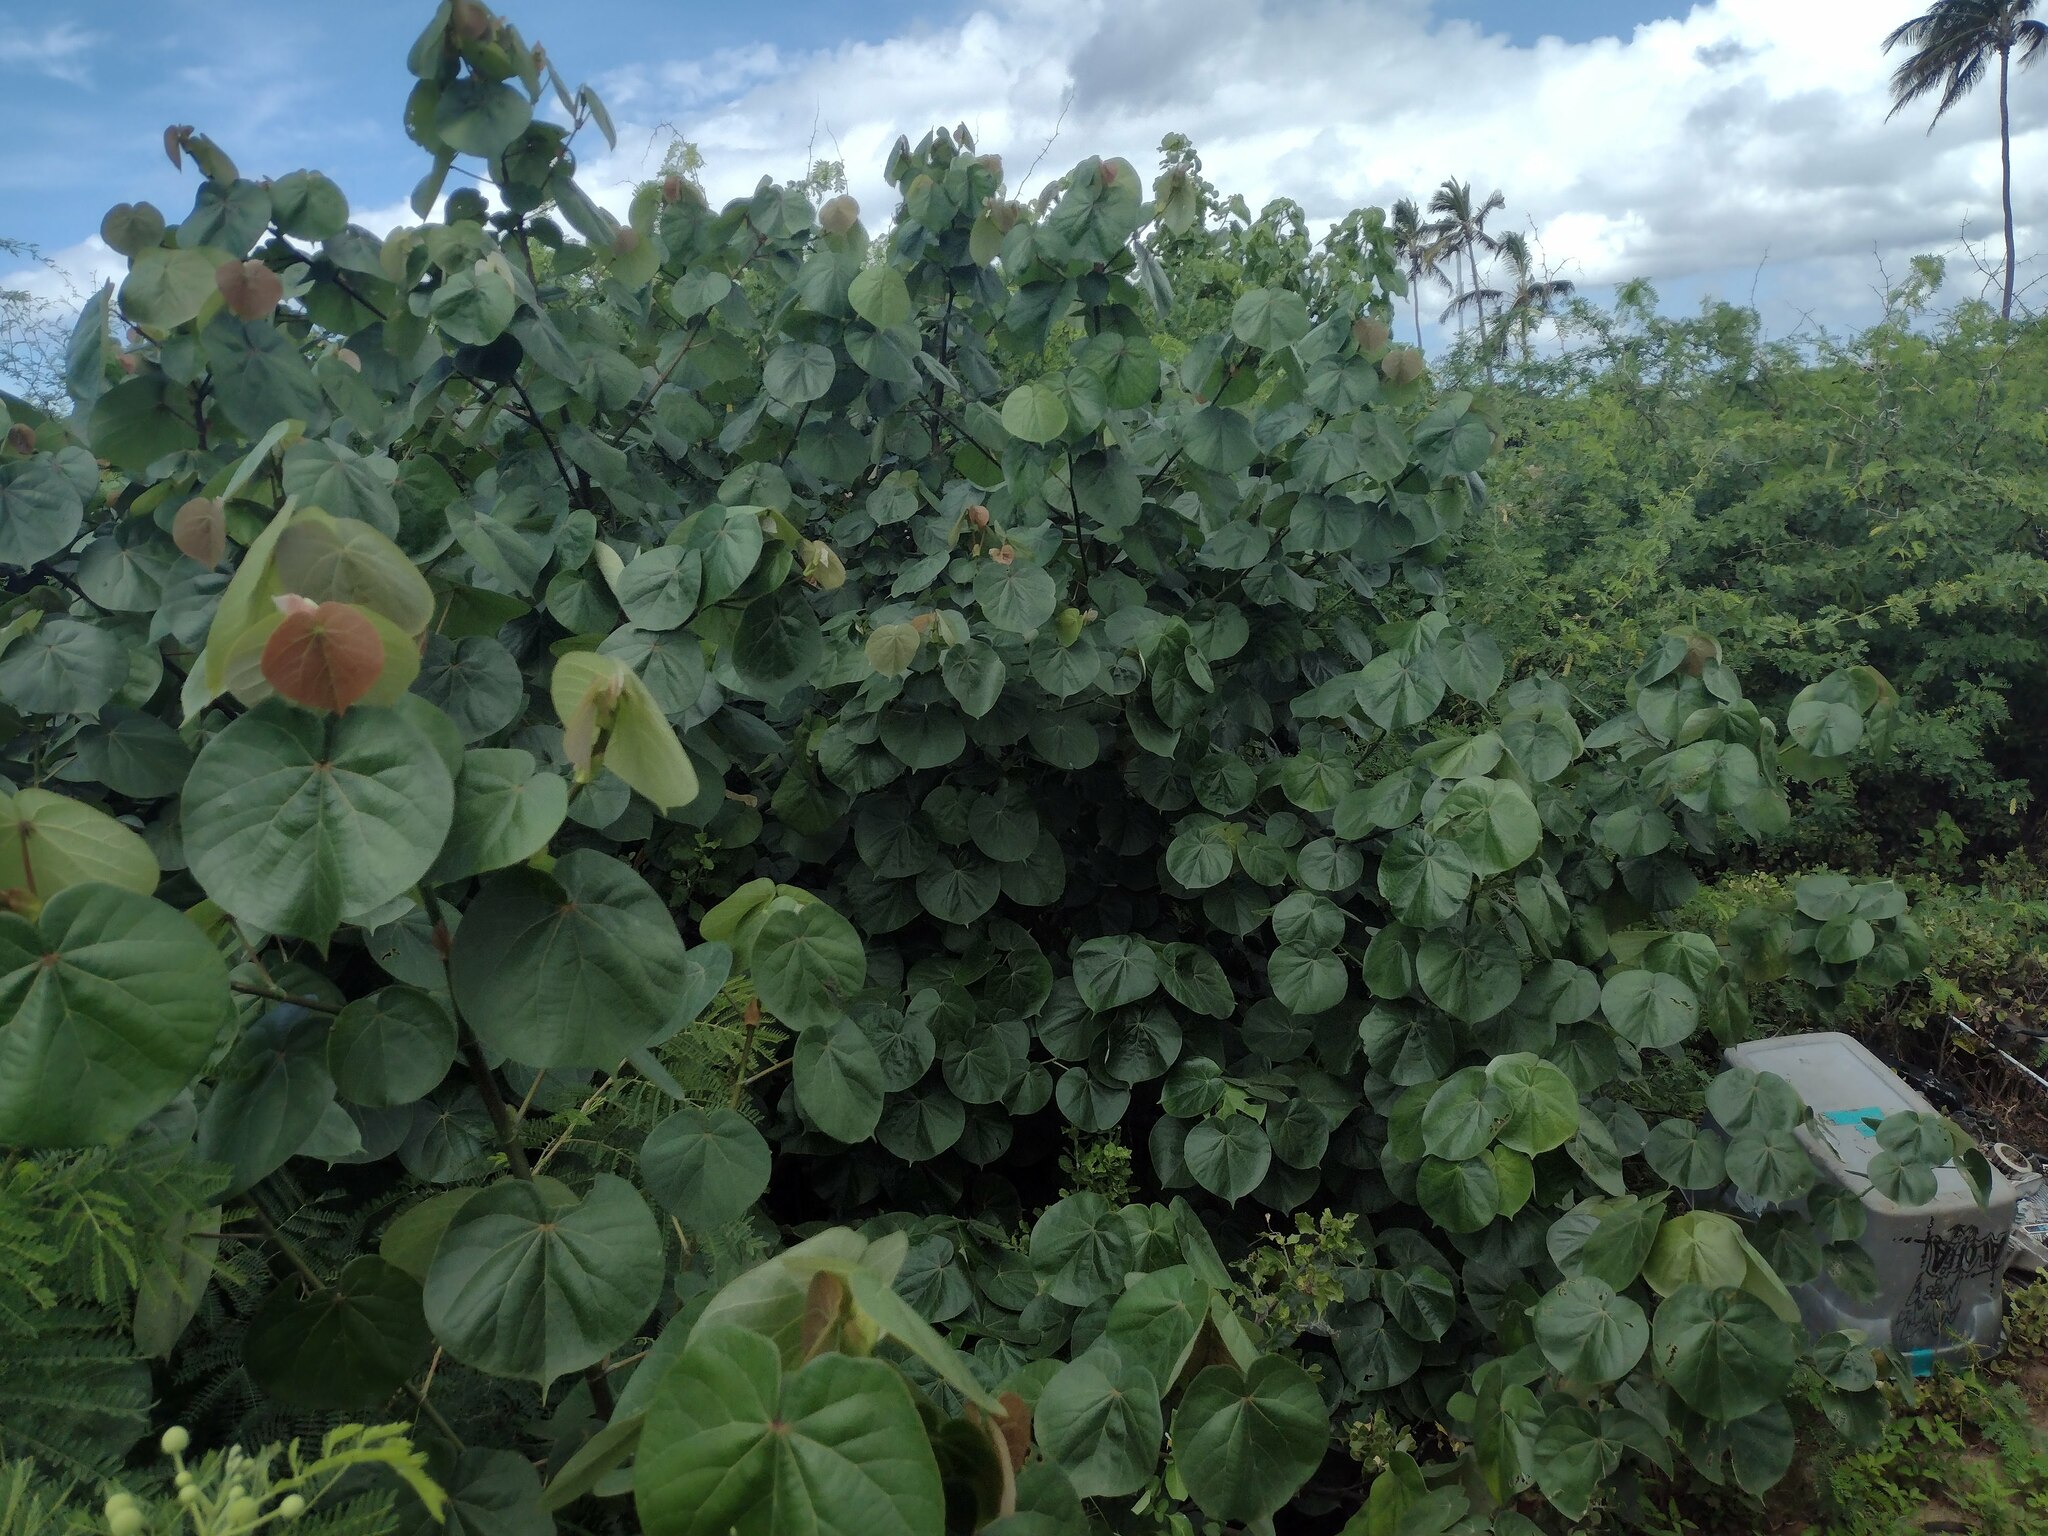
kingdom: Plantae
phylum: Tracheophyta
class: Magnoliopsida
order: Malvales
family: Malvaceae
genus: Talipariti
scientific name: Talipariti tiliaceum
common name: Sea hibiscus
